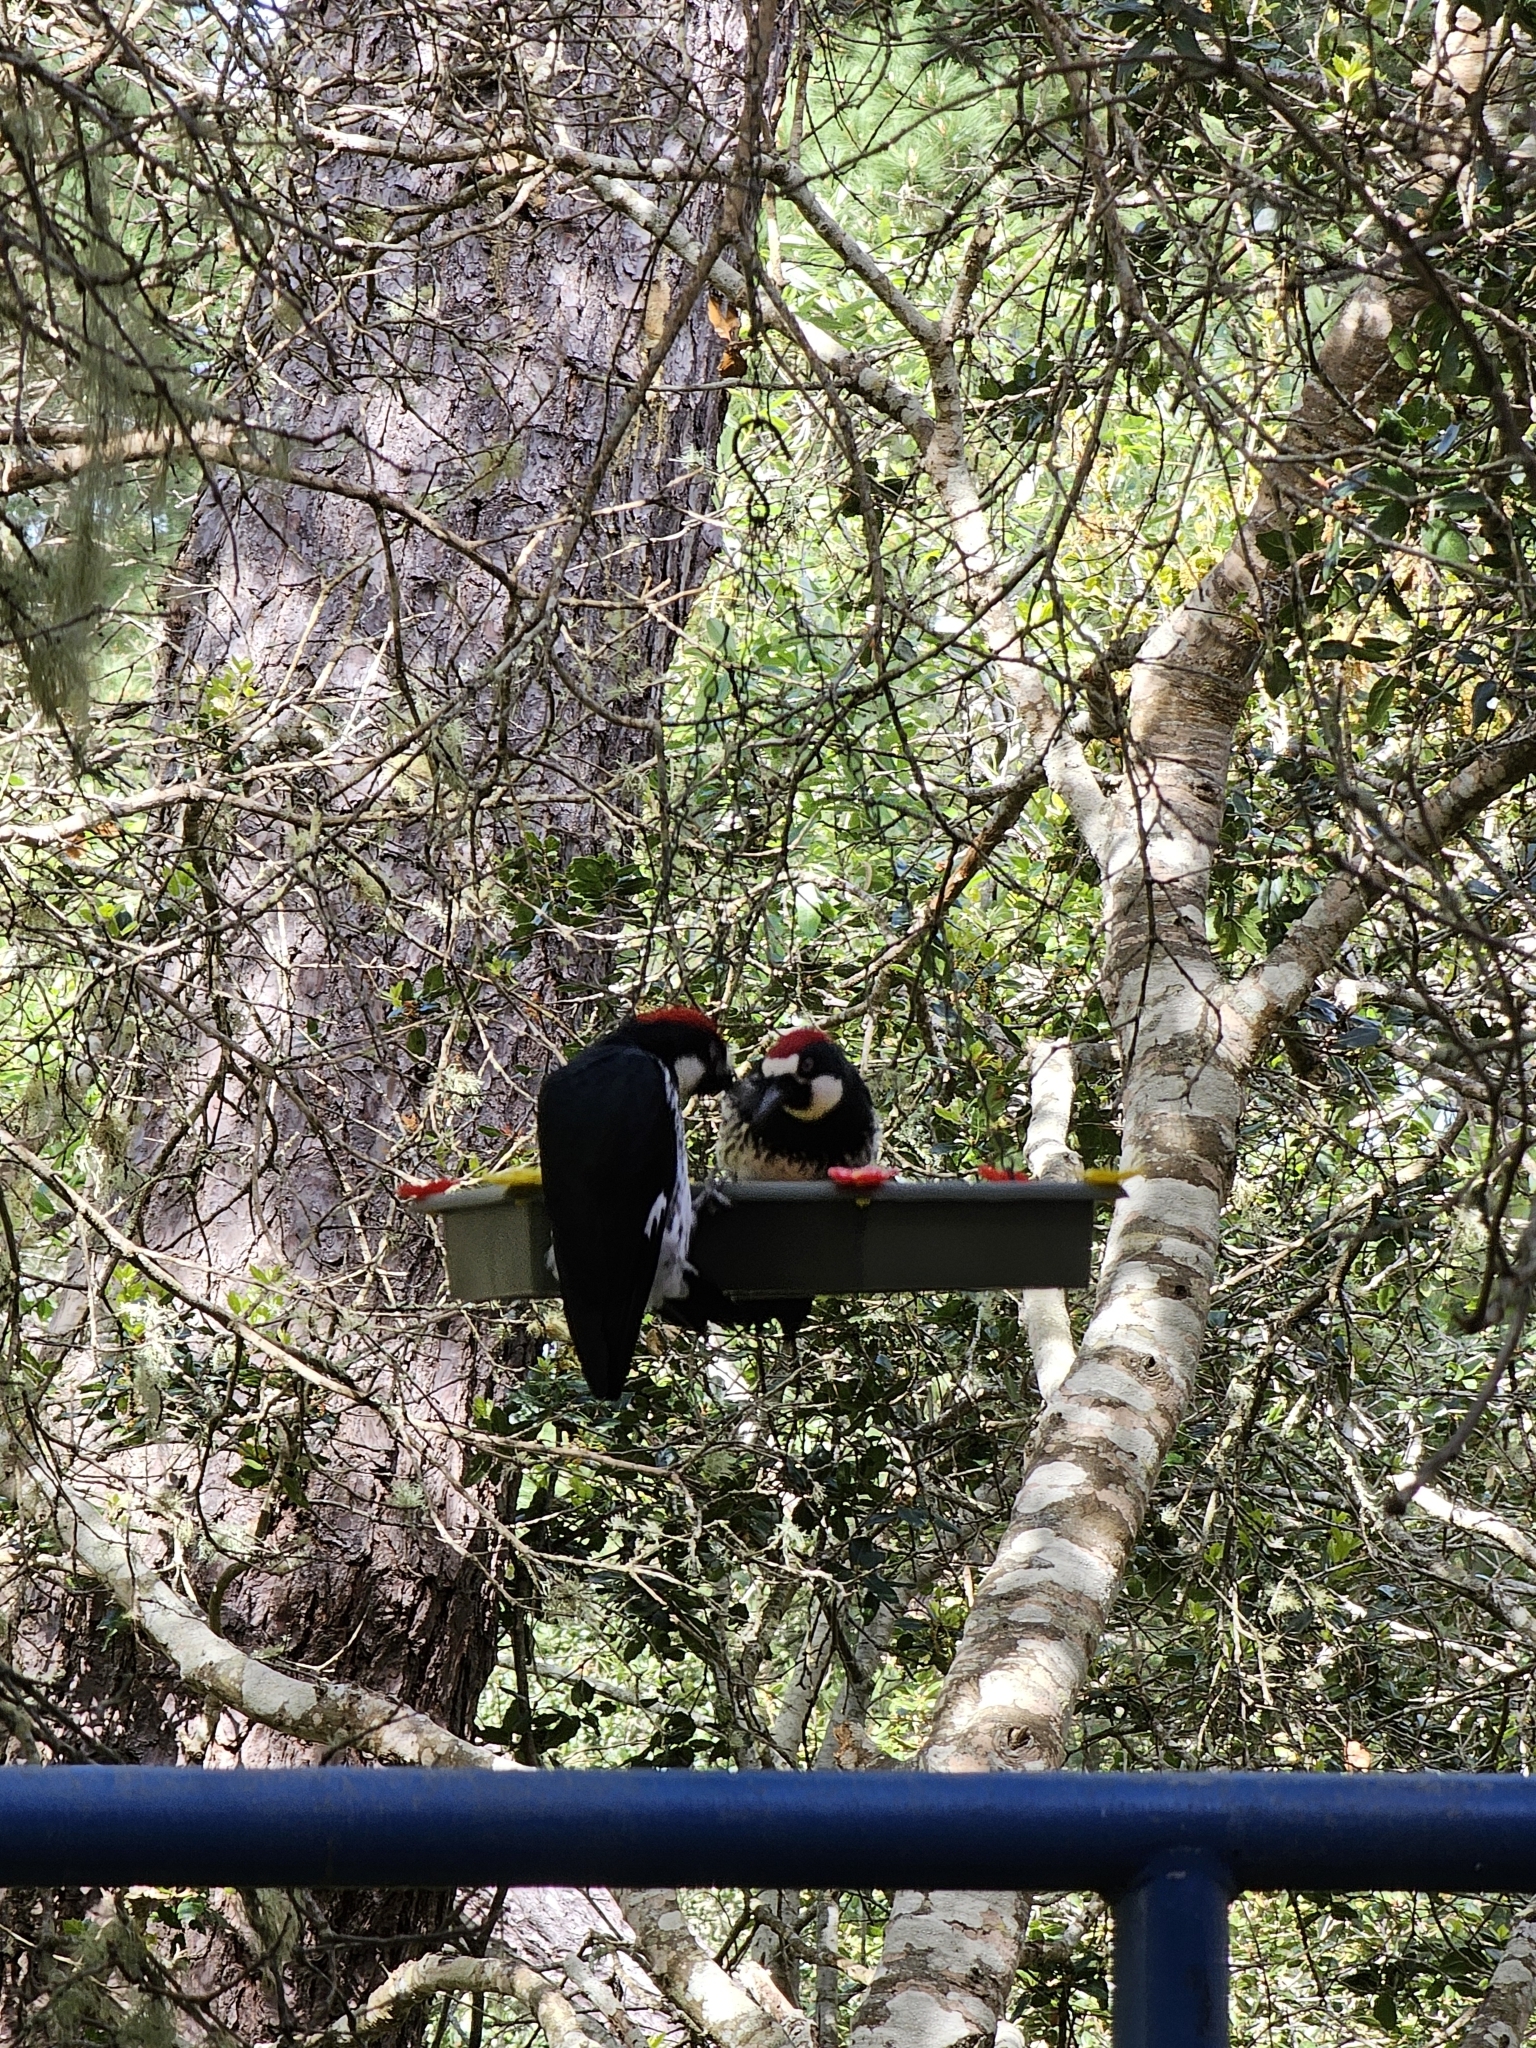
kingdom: Animalia
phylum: Chordata
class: Aves
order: Piciformes
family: Picidae
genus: Melanerpes
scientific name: Melanerpes formicivorus
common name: Acorn woodpecker
